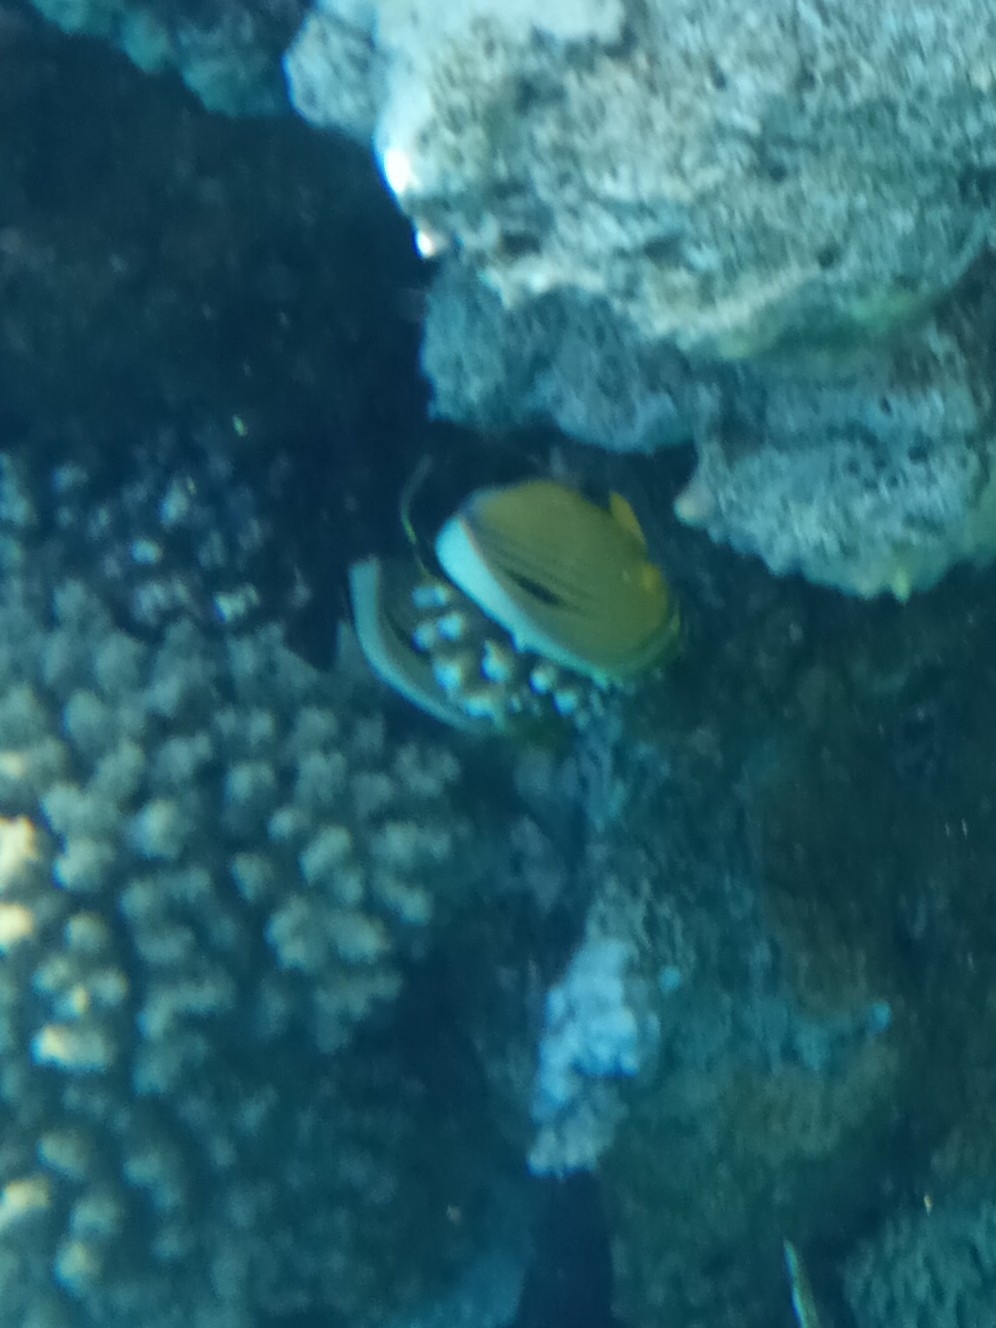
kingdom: Animalia
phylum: Chordata
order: Perciformes
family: Chaetodontidae
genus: Chaetodon
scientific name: Chaetodon austriacus
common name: Exquisite butterflyfish
